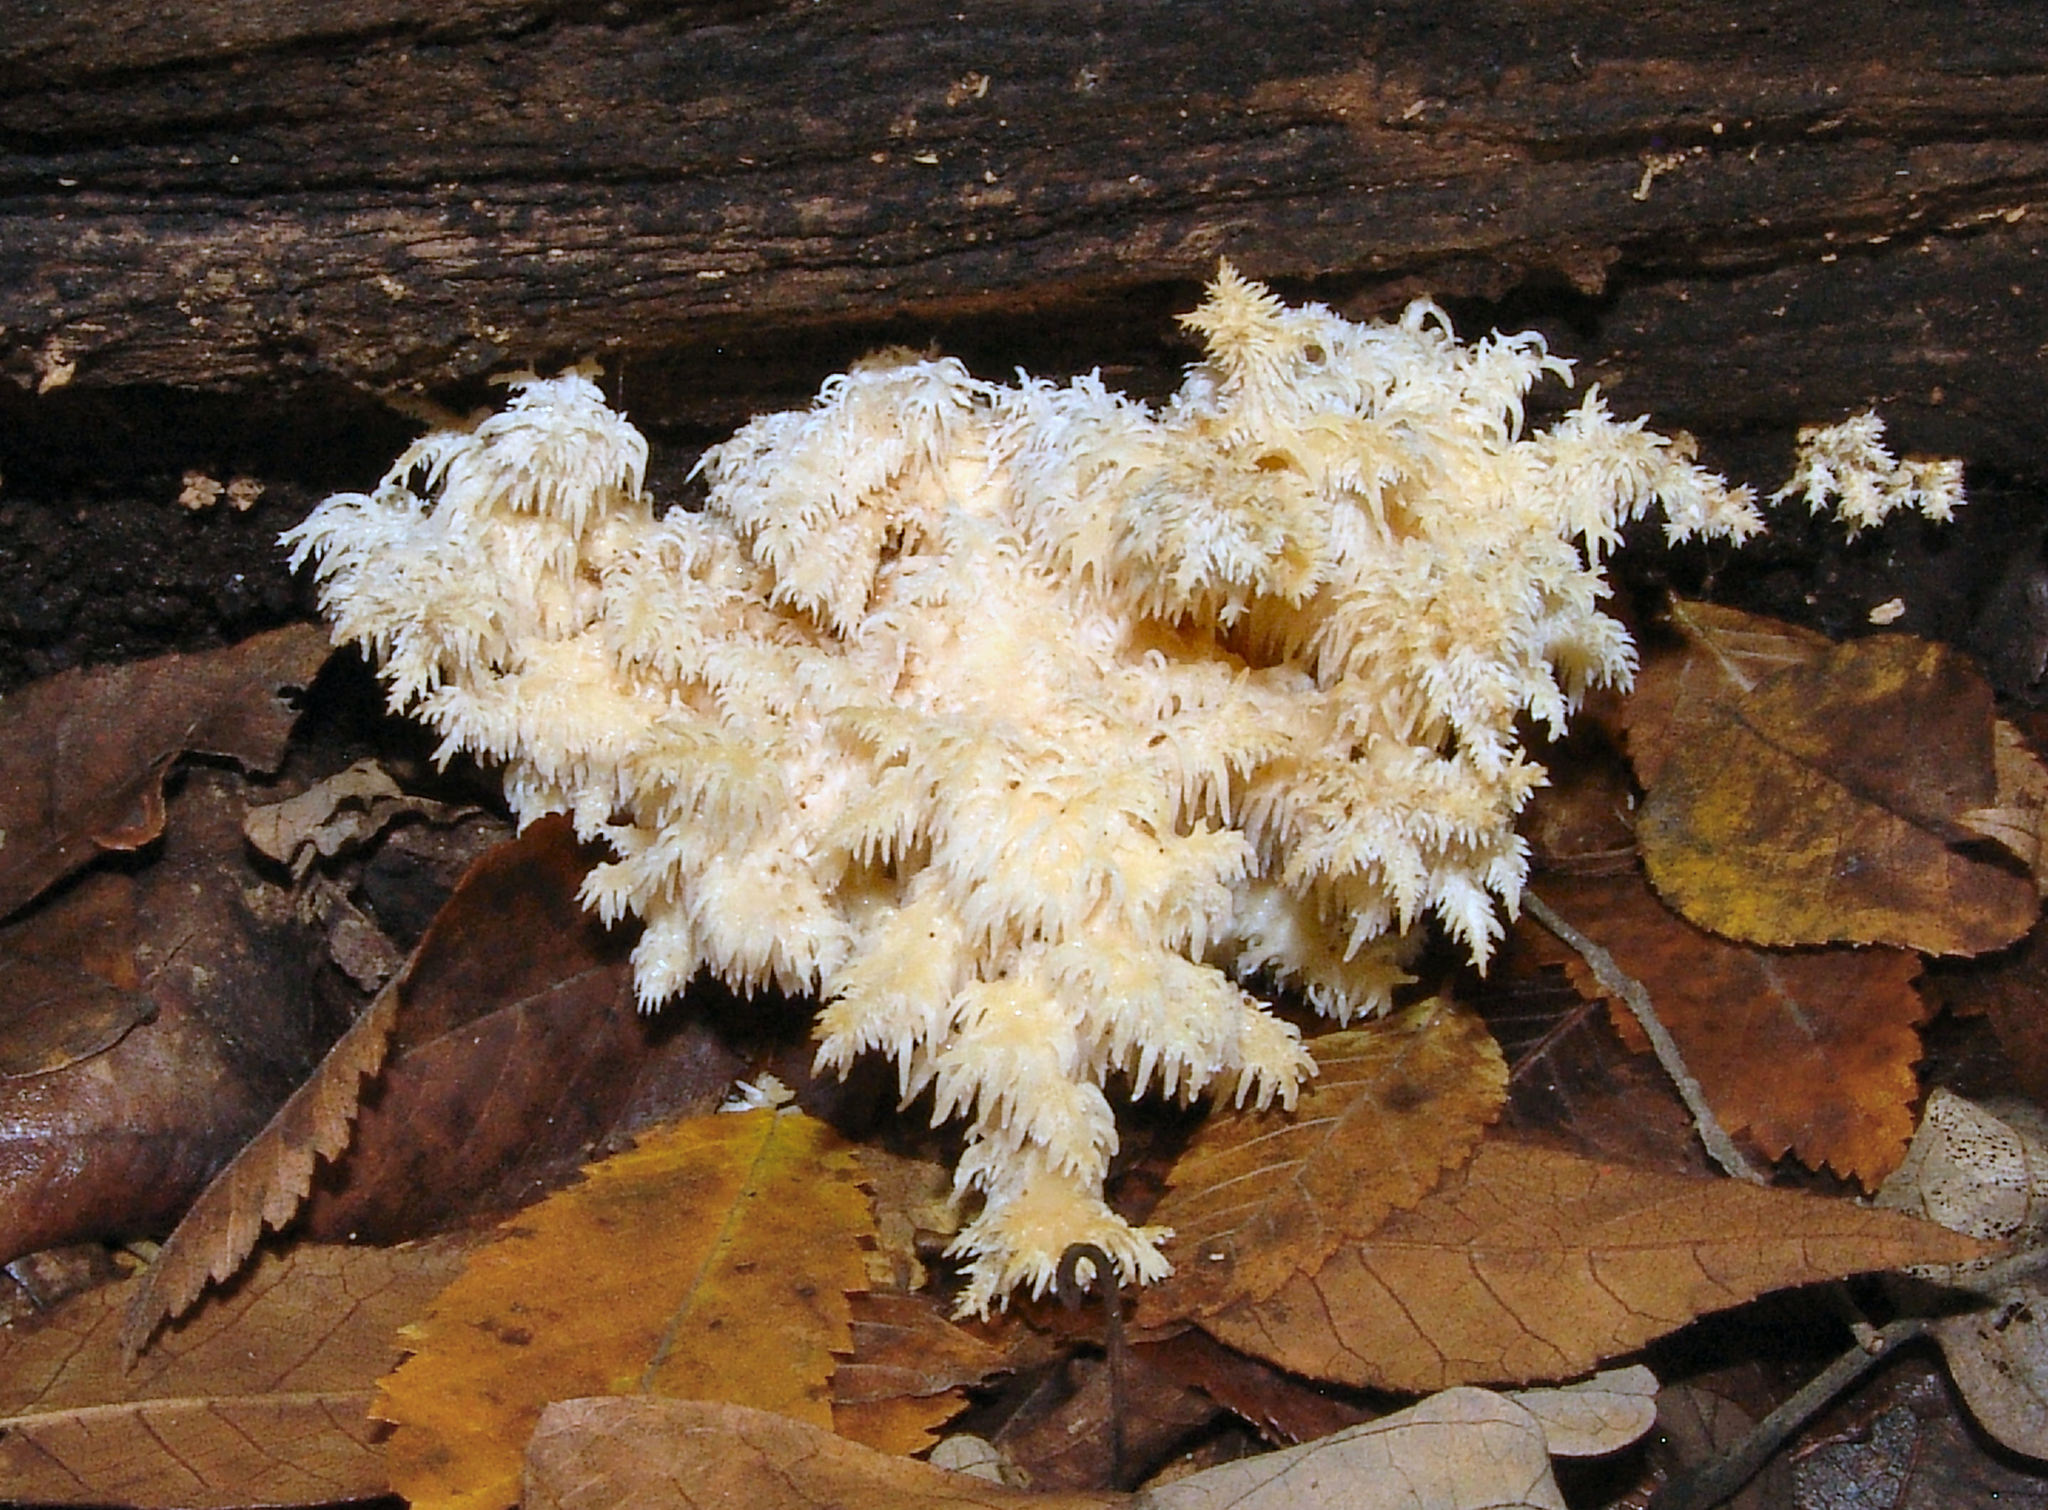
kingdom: Fungi
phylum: Basidiomycota
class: Agaricomycetes
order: Russulales
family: Hericiaceae
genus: Hericium
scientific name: Hericium coralloides
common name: Coral tooth
